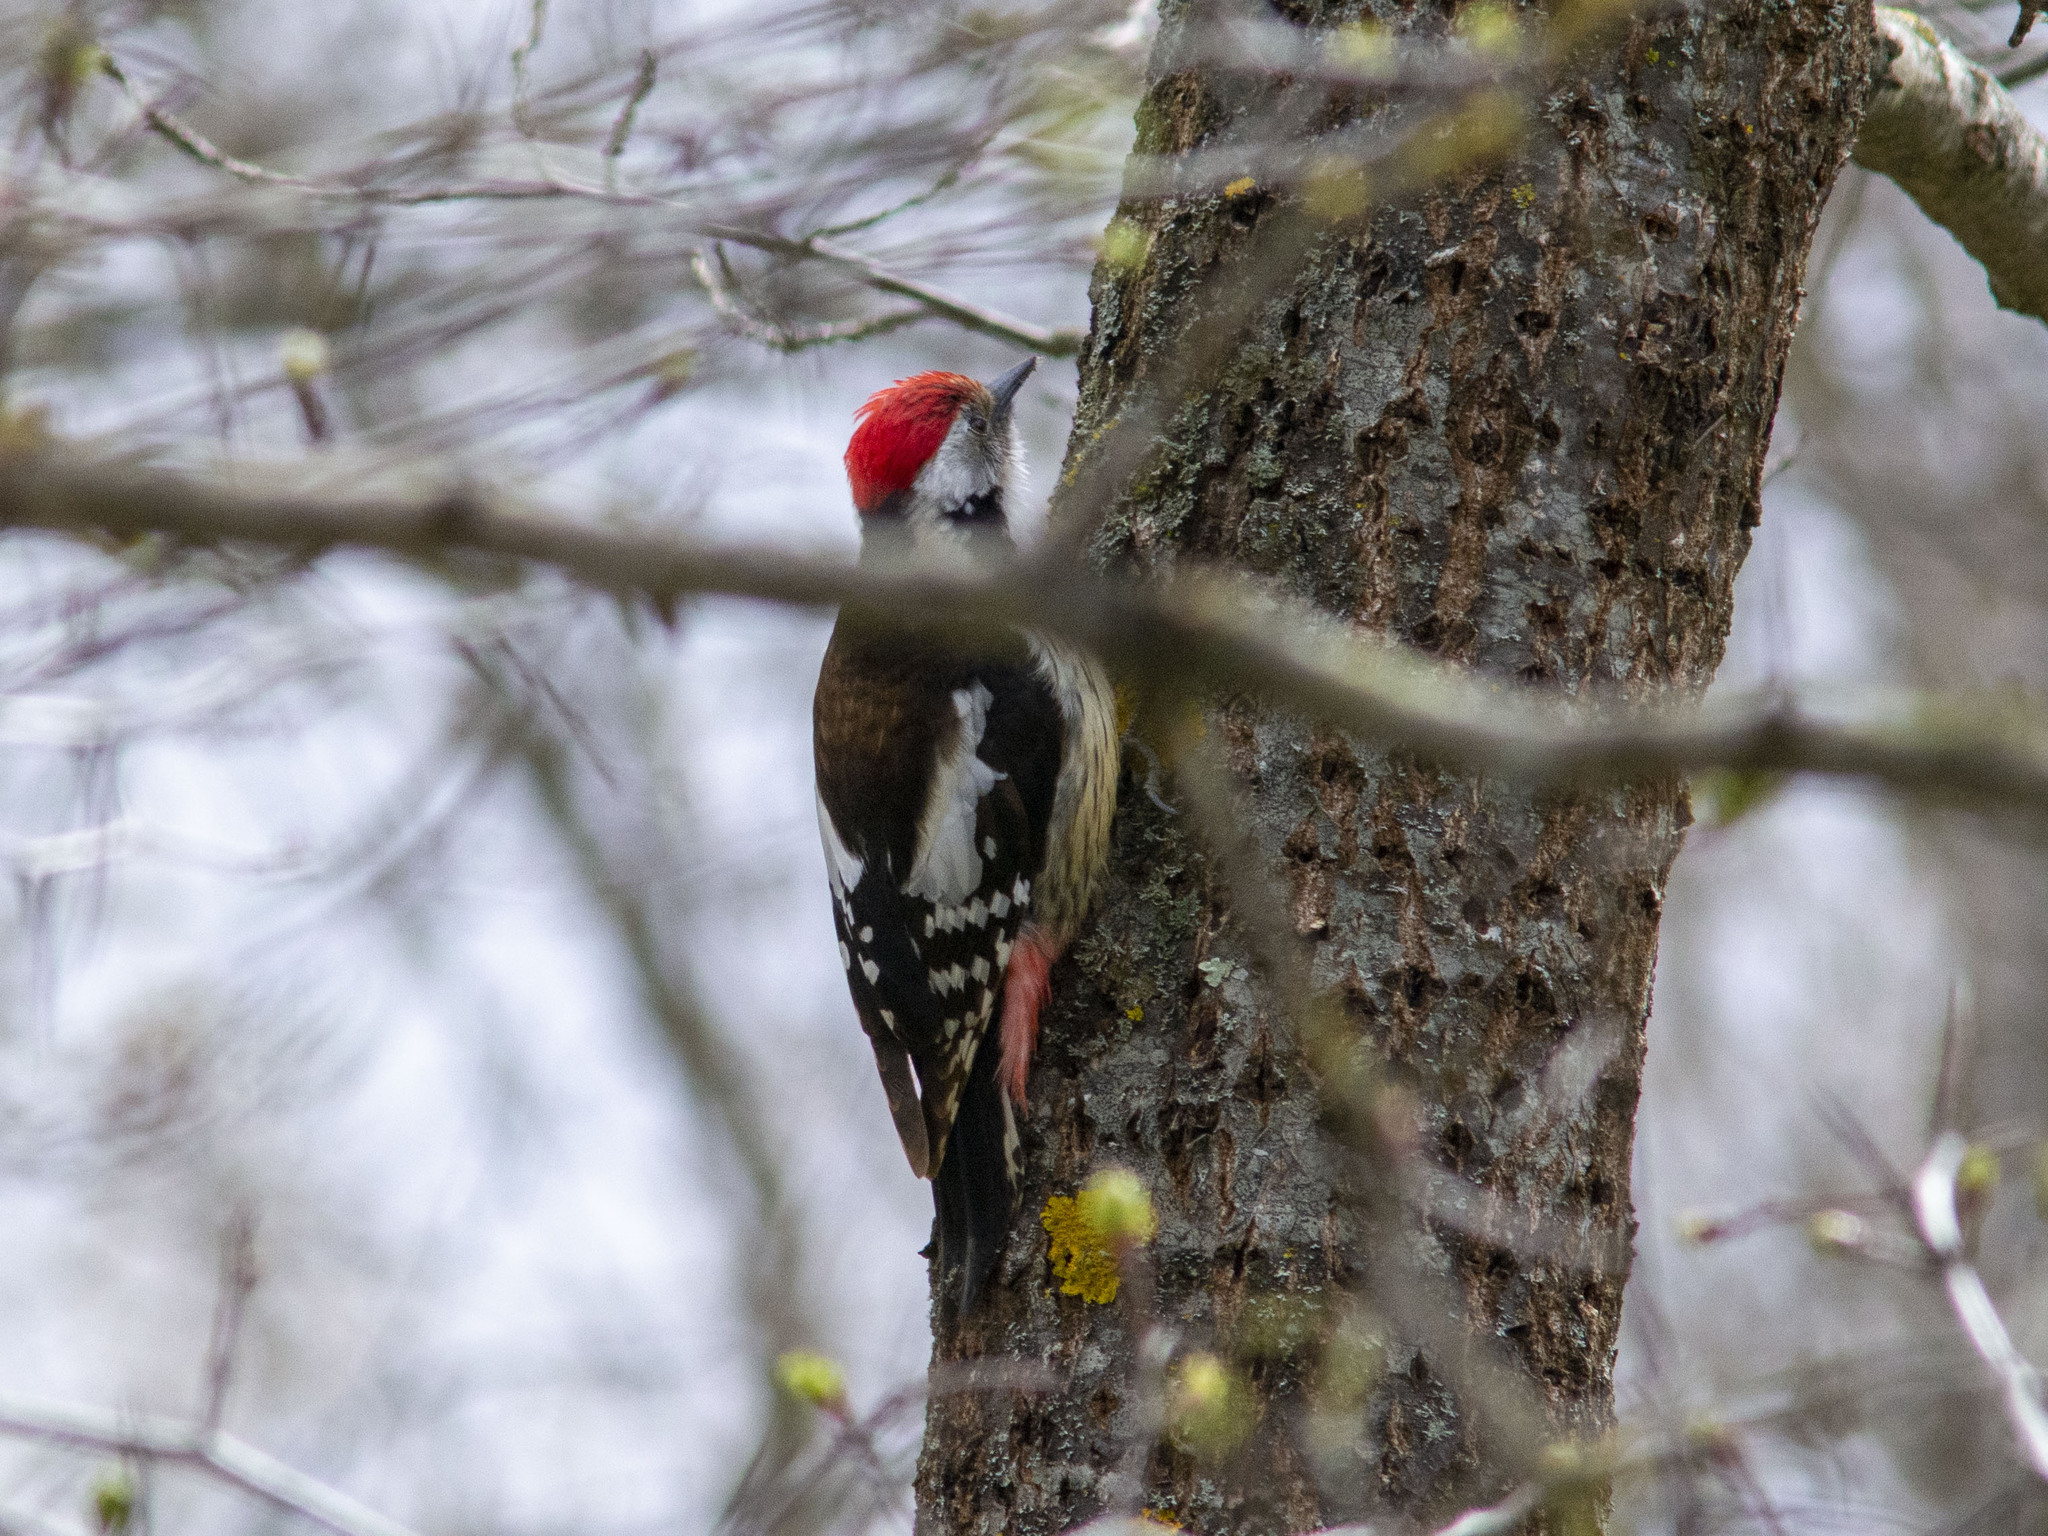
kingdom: Animalia
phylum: Chordata
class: Aves
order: Piciformes
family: Picidae
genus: Dendrocoptes
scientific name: Dendrocoptes medius
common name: Middle spotted woodpecker
